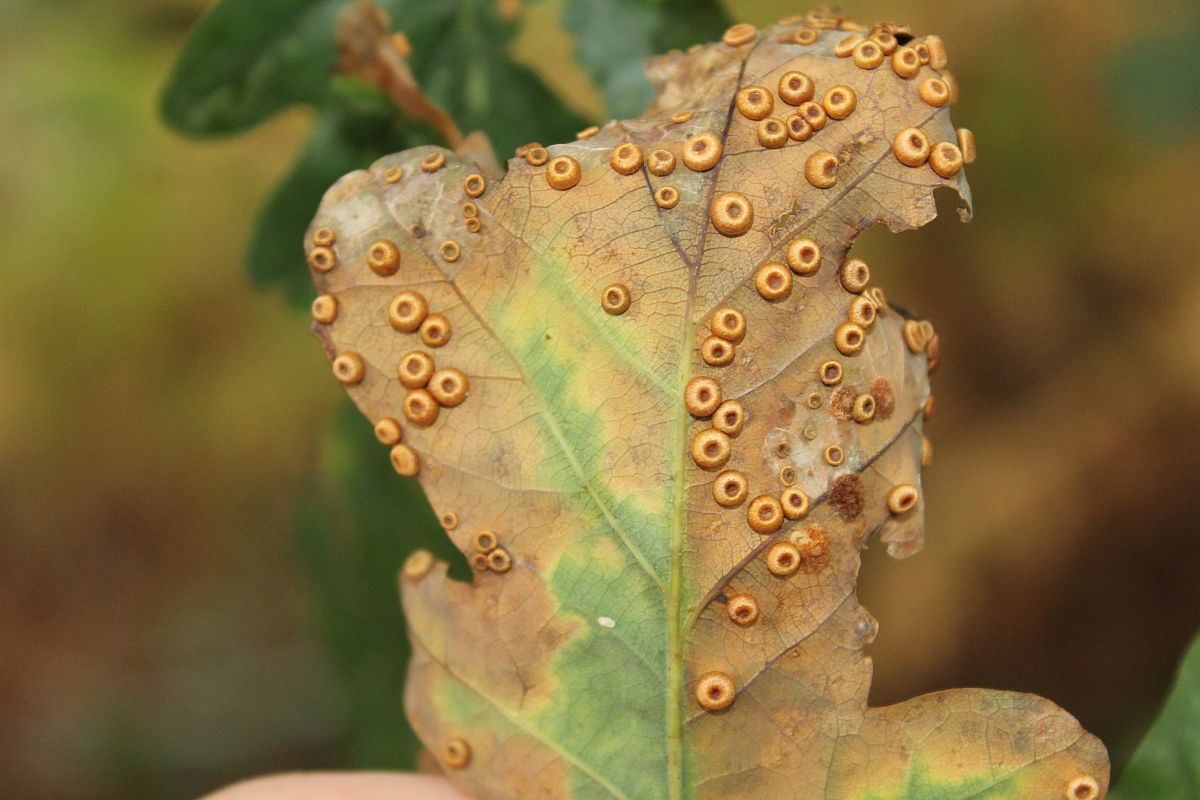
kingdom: Animalia
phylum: Arthropoda
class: Insecta
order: Hymenoptera
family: Cynipidae
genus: Neuroterus
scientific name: Neuroterus numismalis
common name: Silk-button spangle gall
